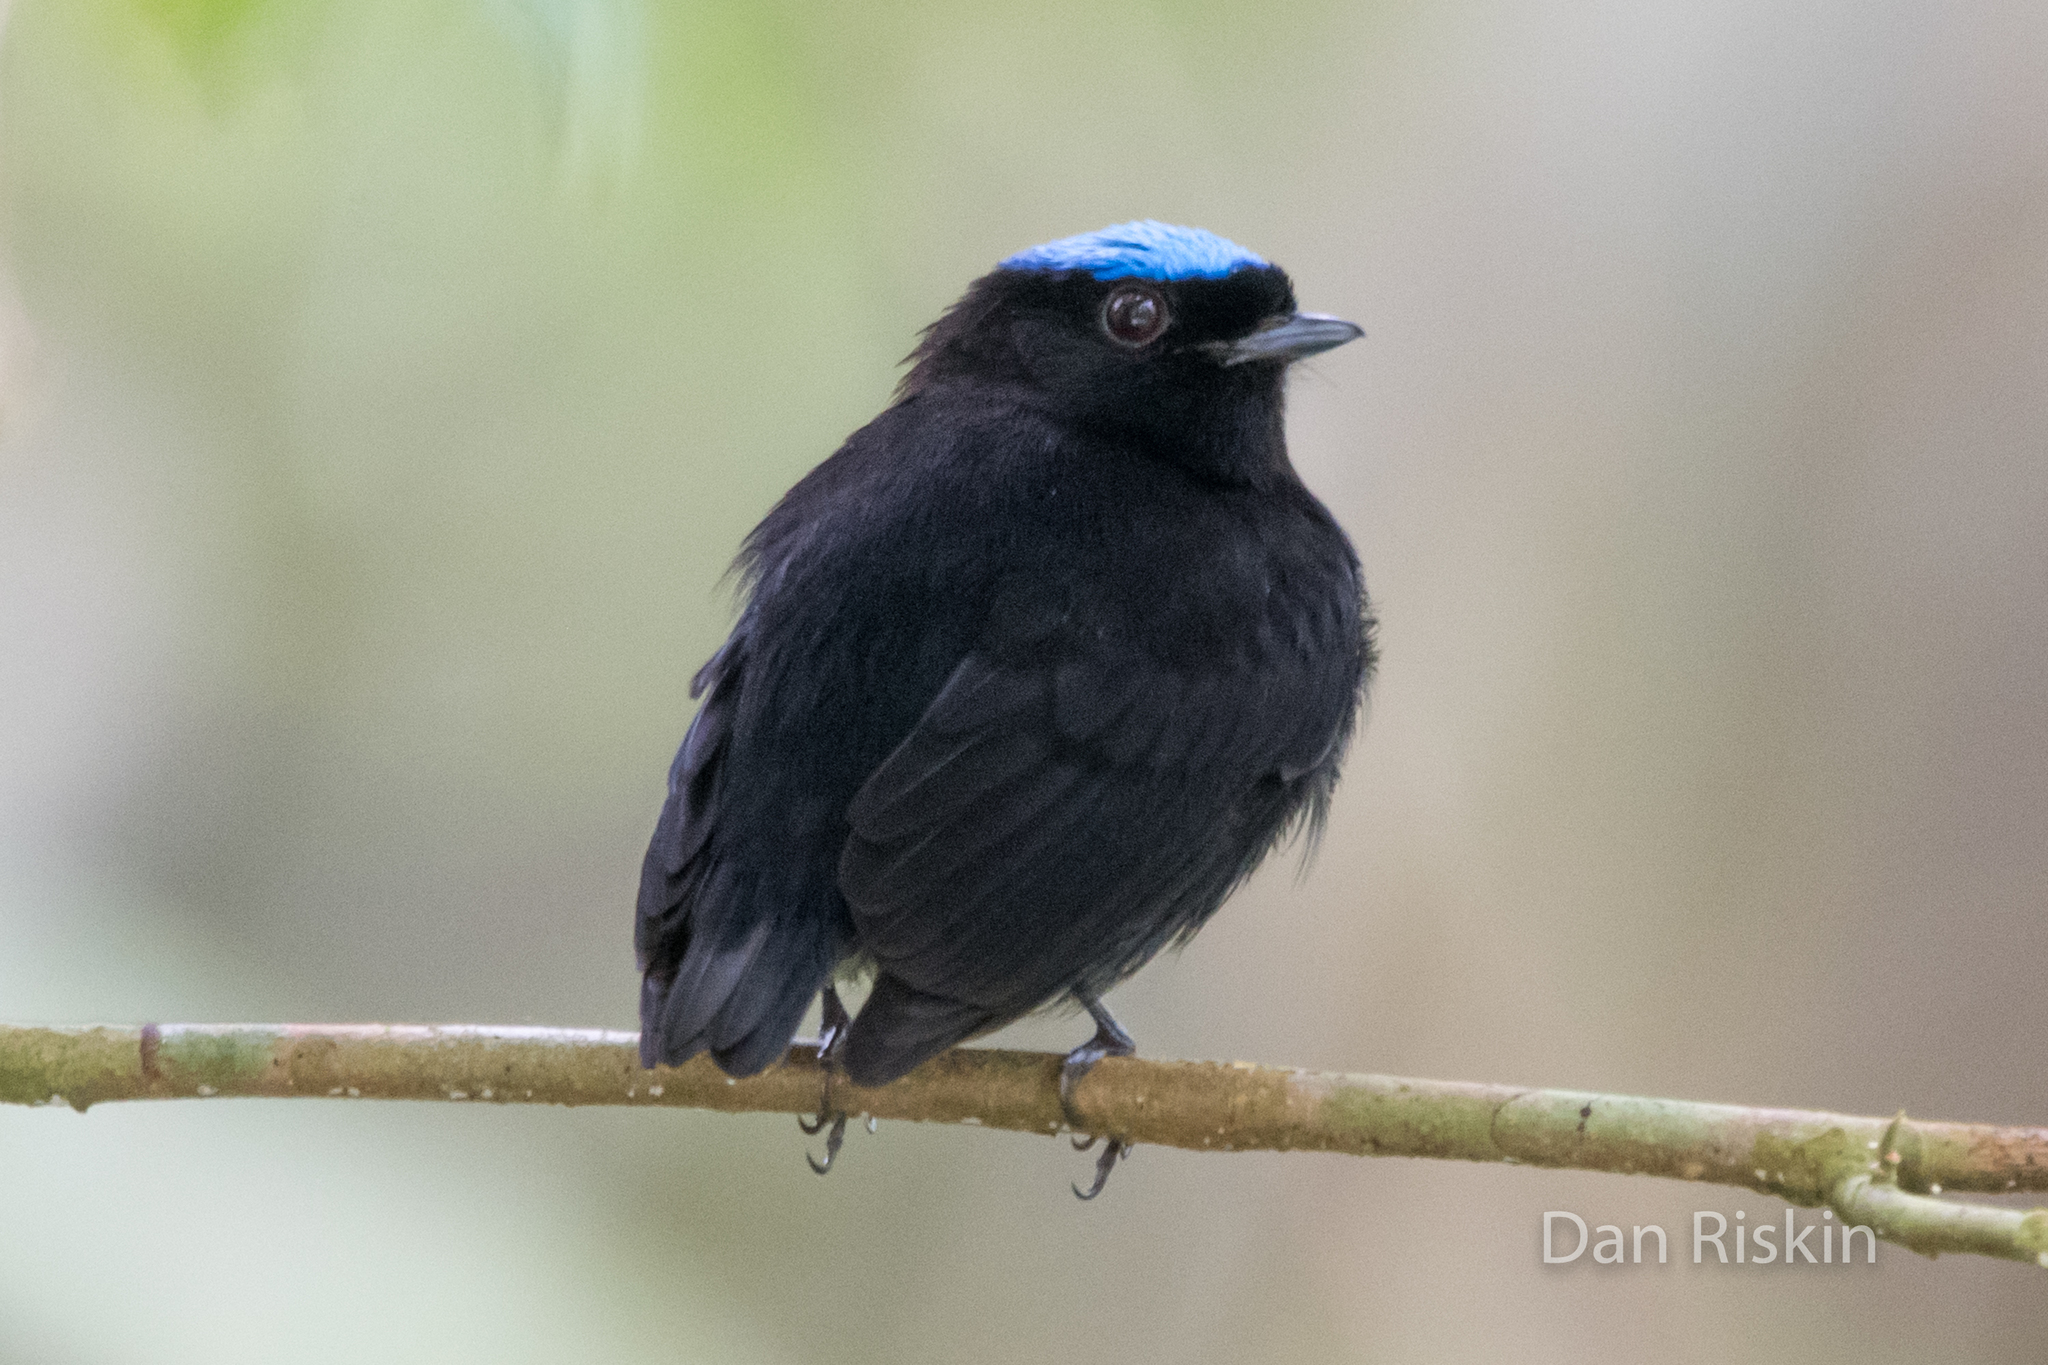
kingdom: Animalia
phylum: Chordata
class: Aves
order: Passeriformes
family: Pipridae
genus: Lepidothrix
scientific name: Lepidothrix coronata
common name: Blue-crowned manakin
